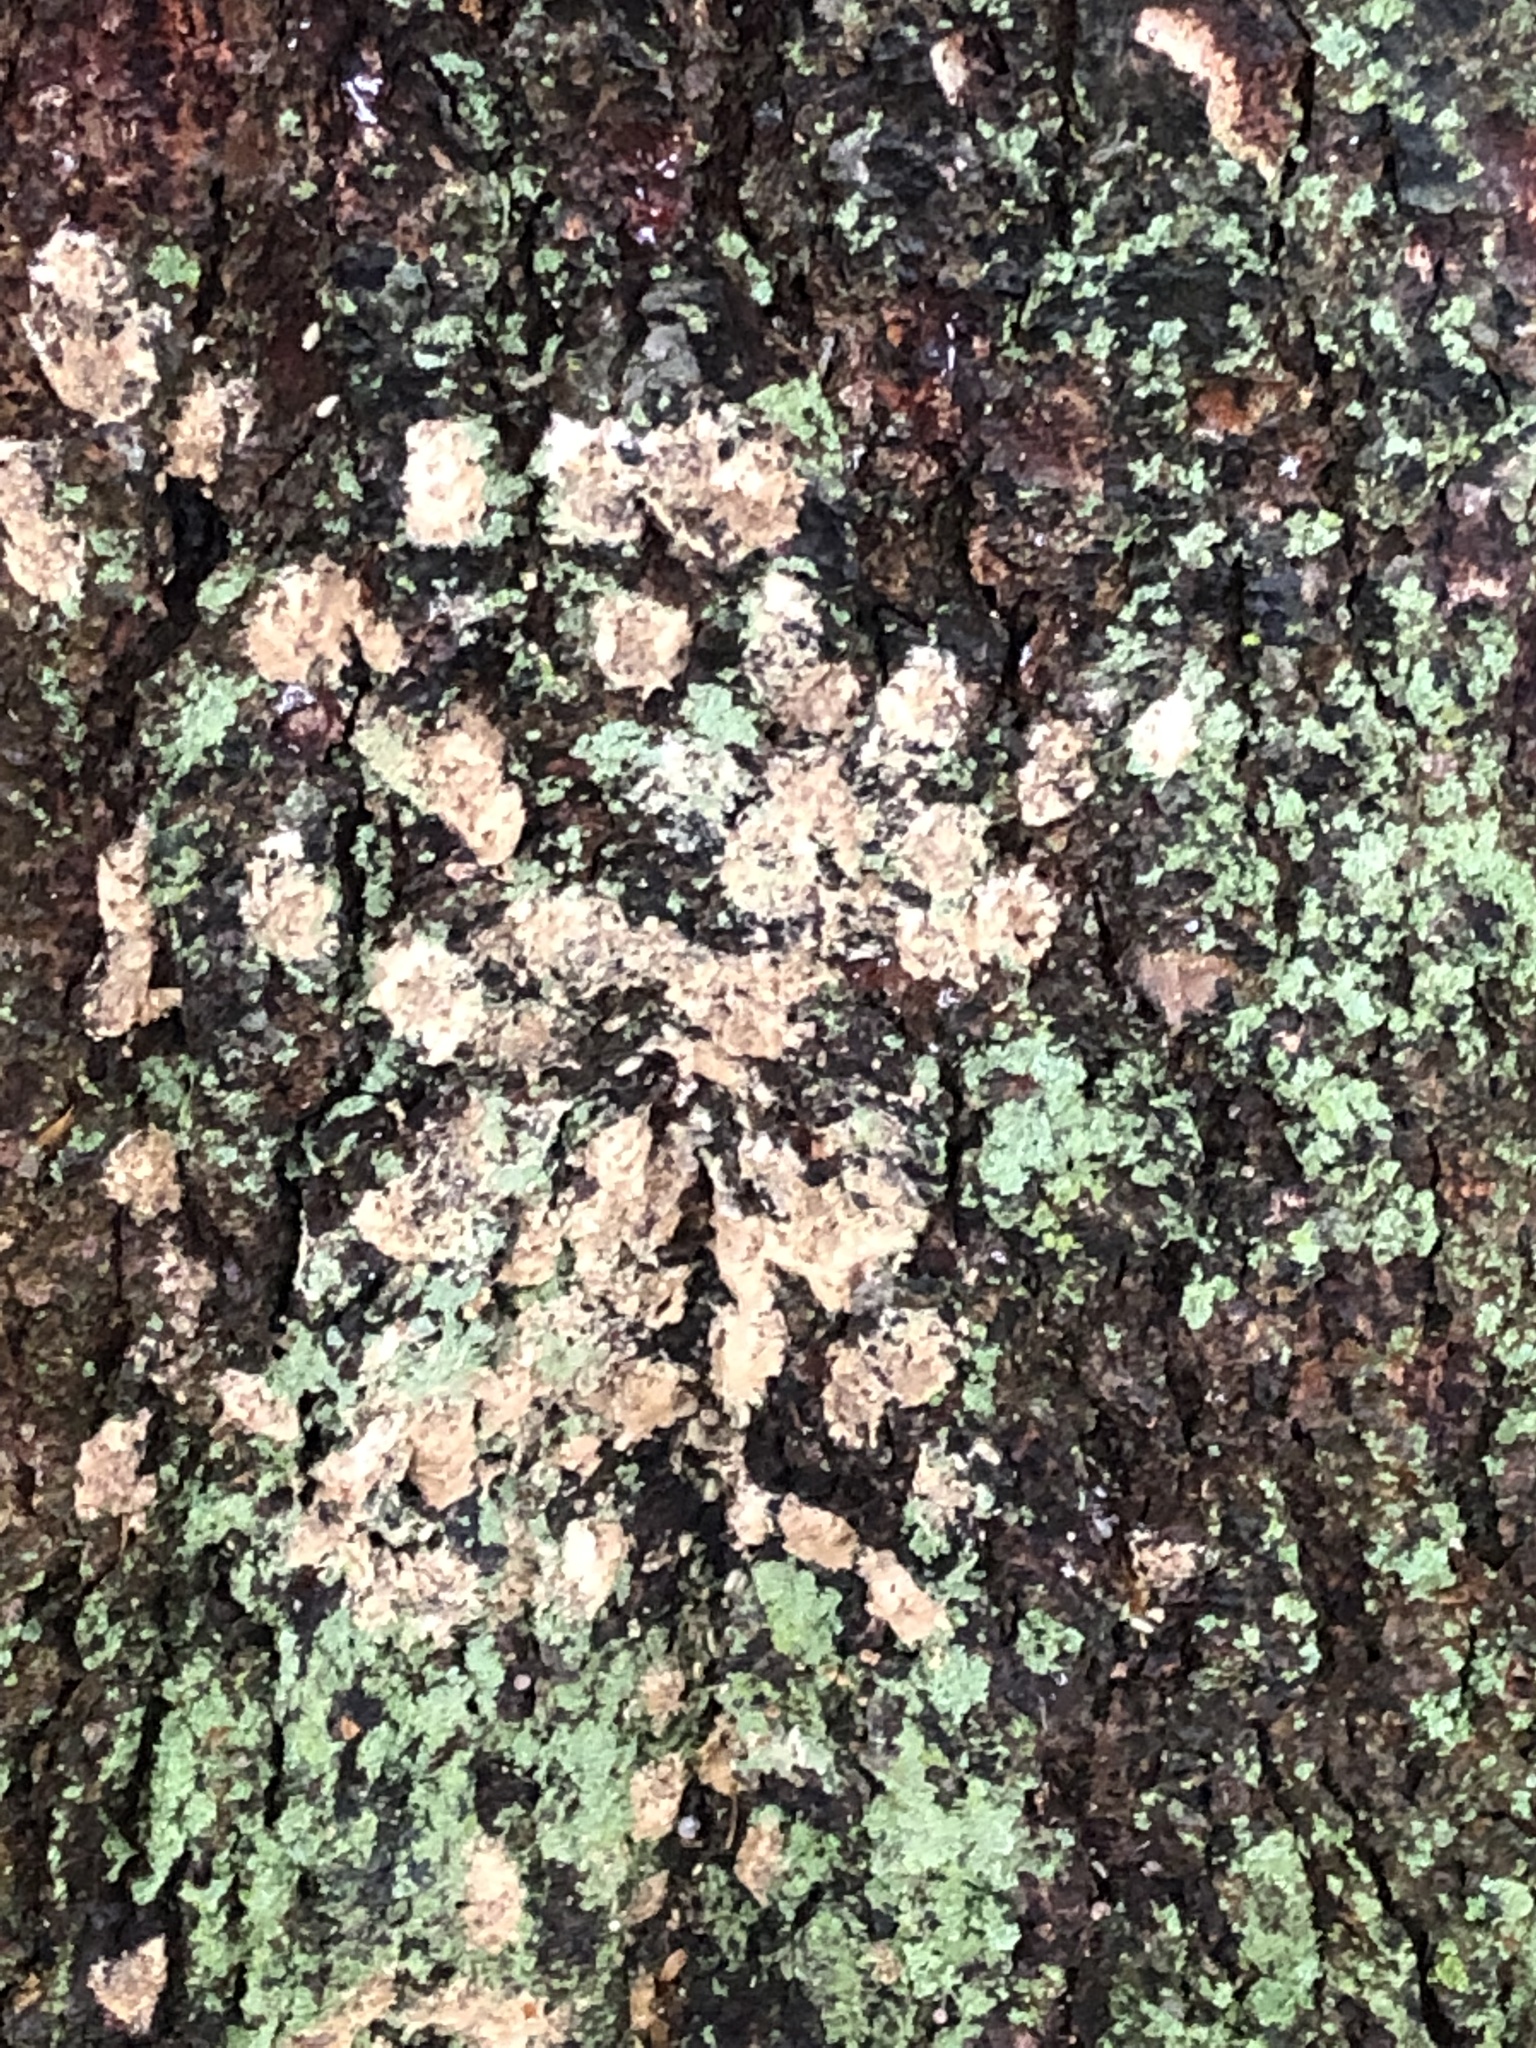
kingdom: Animalia
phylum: Arthropoda
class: Insecta
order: Lepidoptera
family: Erebidae
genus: Lymantria
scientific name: Lymantria dispar
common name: Gypsy moth
